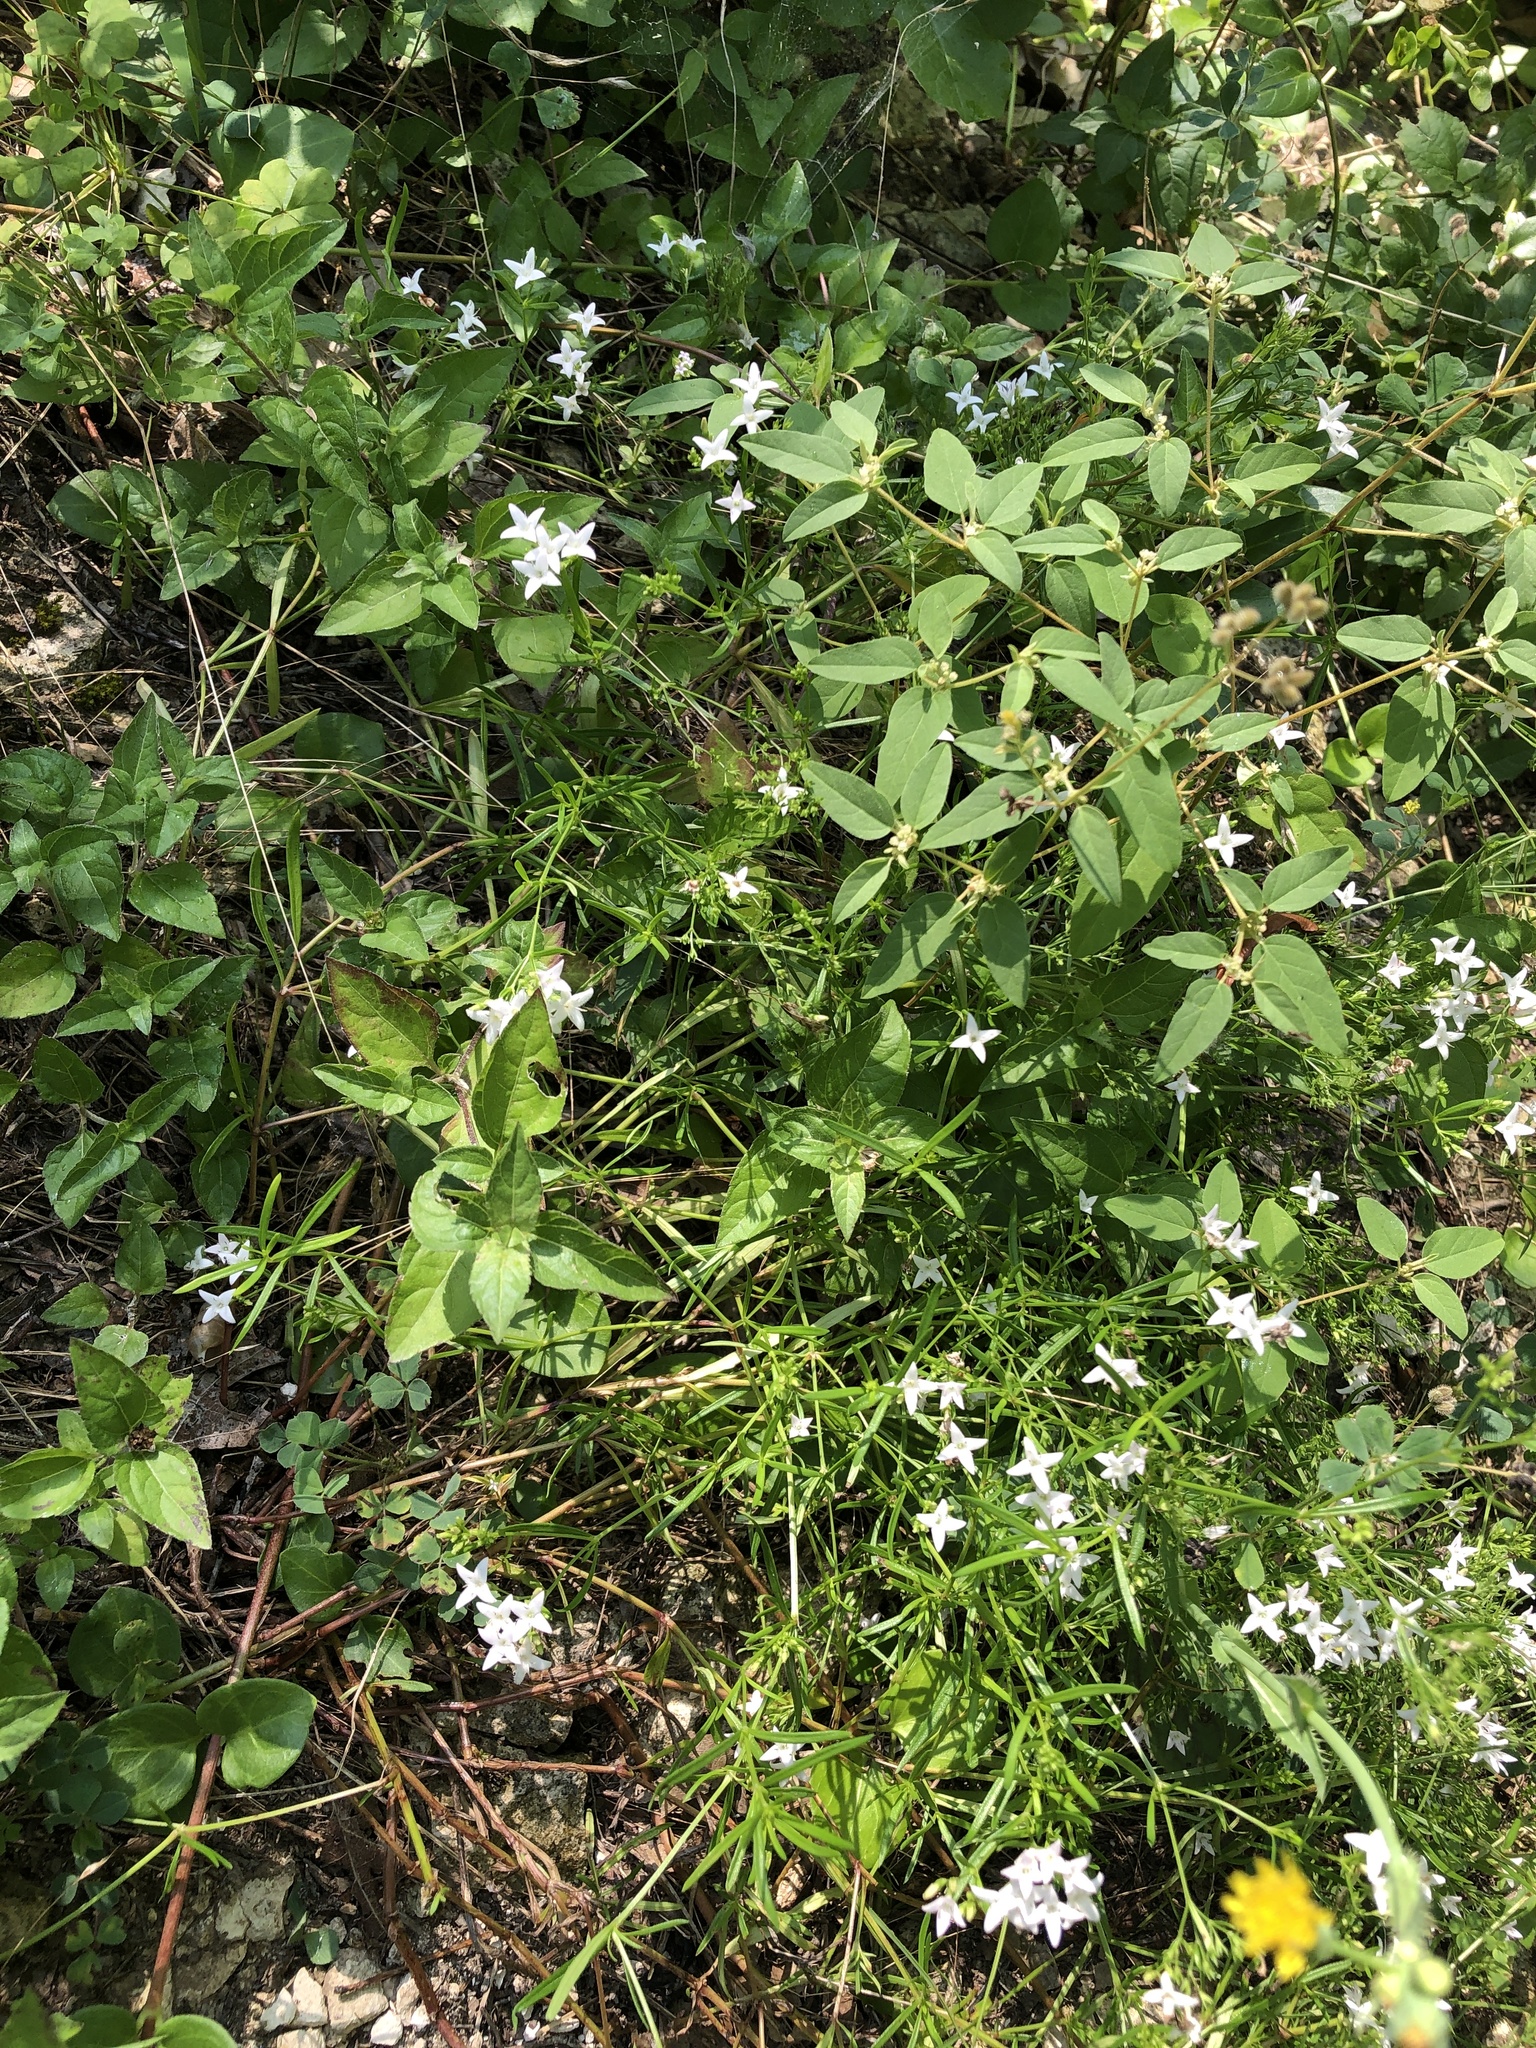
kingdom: Plantae
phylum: Tracheophyta
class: Magnoliopsida
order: Gentianales
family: Rubiaceae
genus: Stenaria
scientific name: Stenaria nigricans
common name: Diamondflowers
